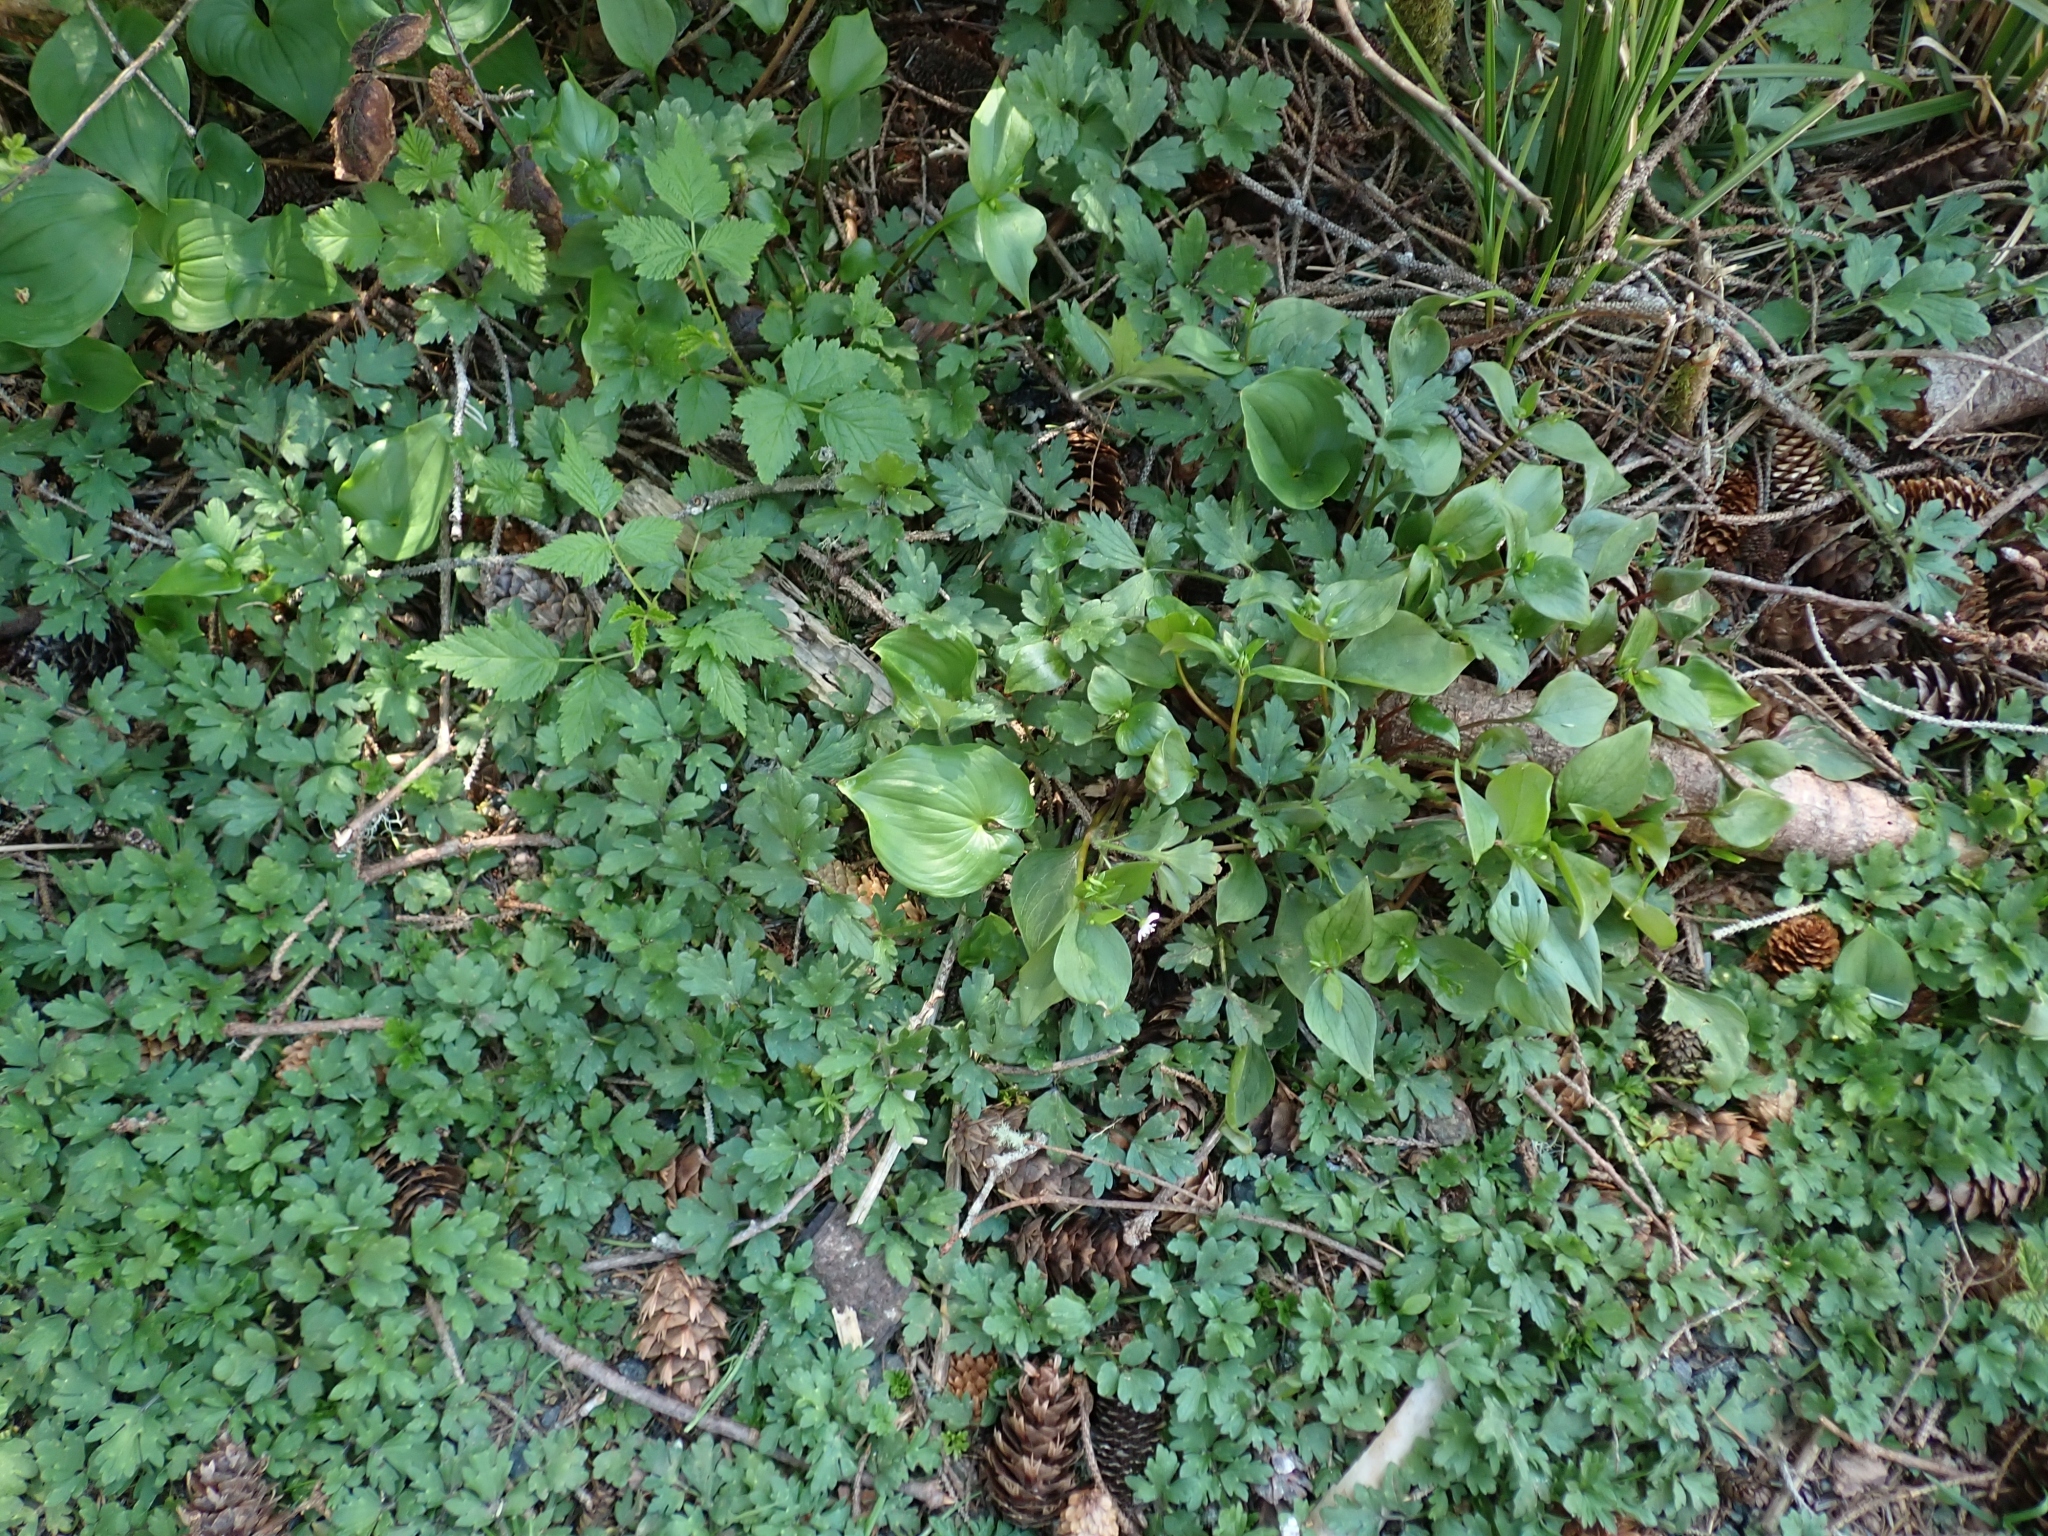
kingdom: Plantae
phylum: Tracheophyta
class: Liliopsida
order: Asparagales
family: Asparagaceae
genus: Maianthemum
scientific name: Maianthemum dilatatum
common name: False lily-of-the-valley
